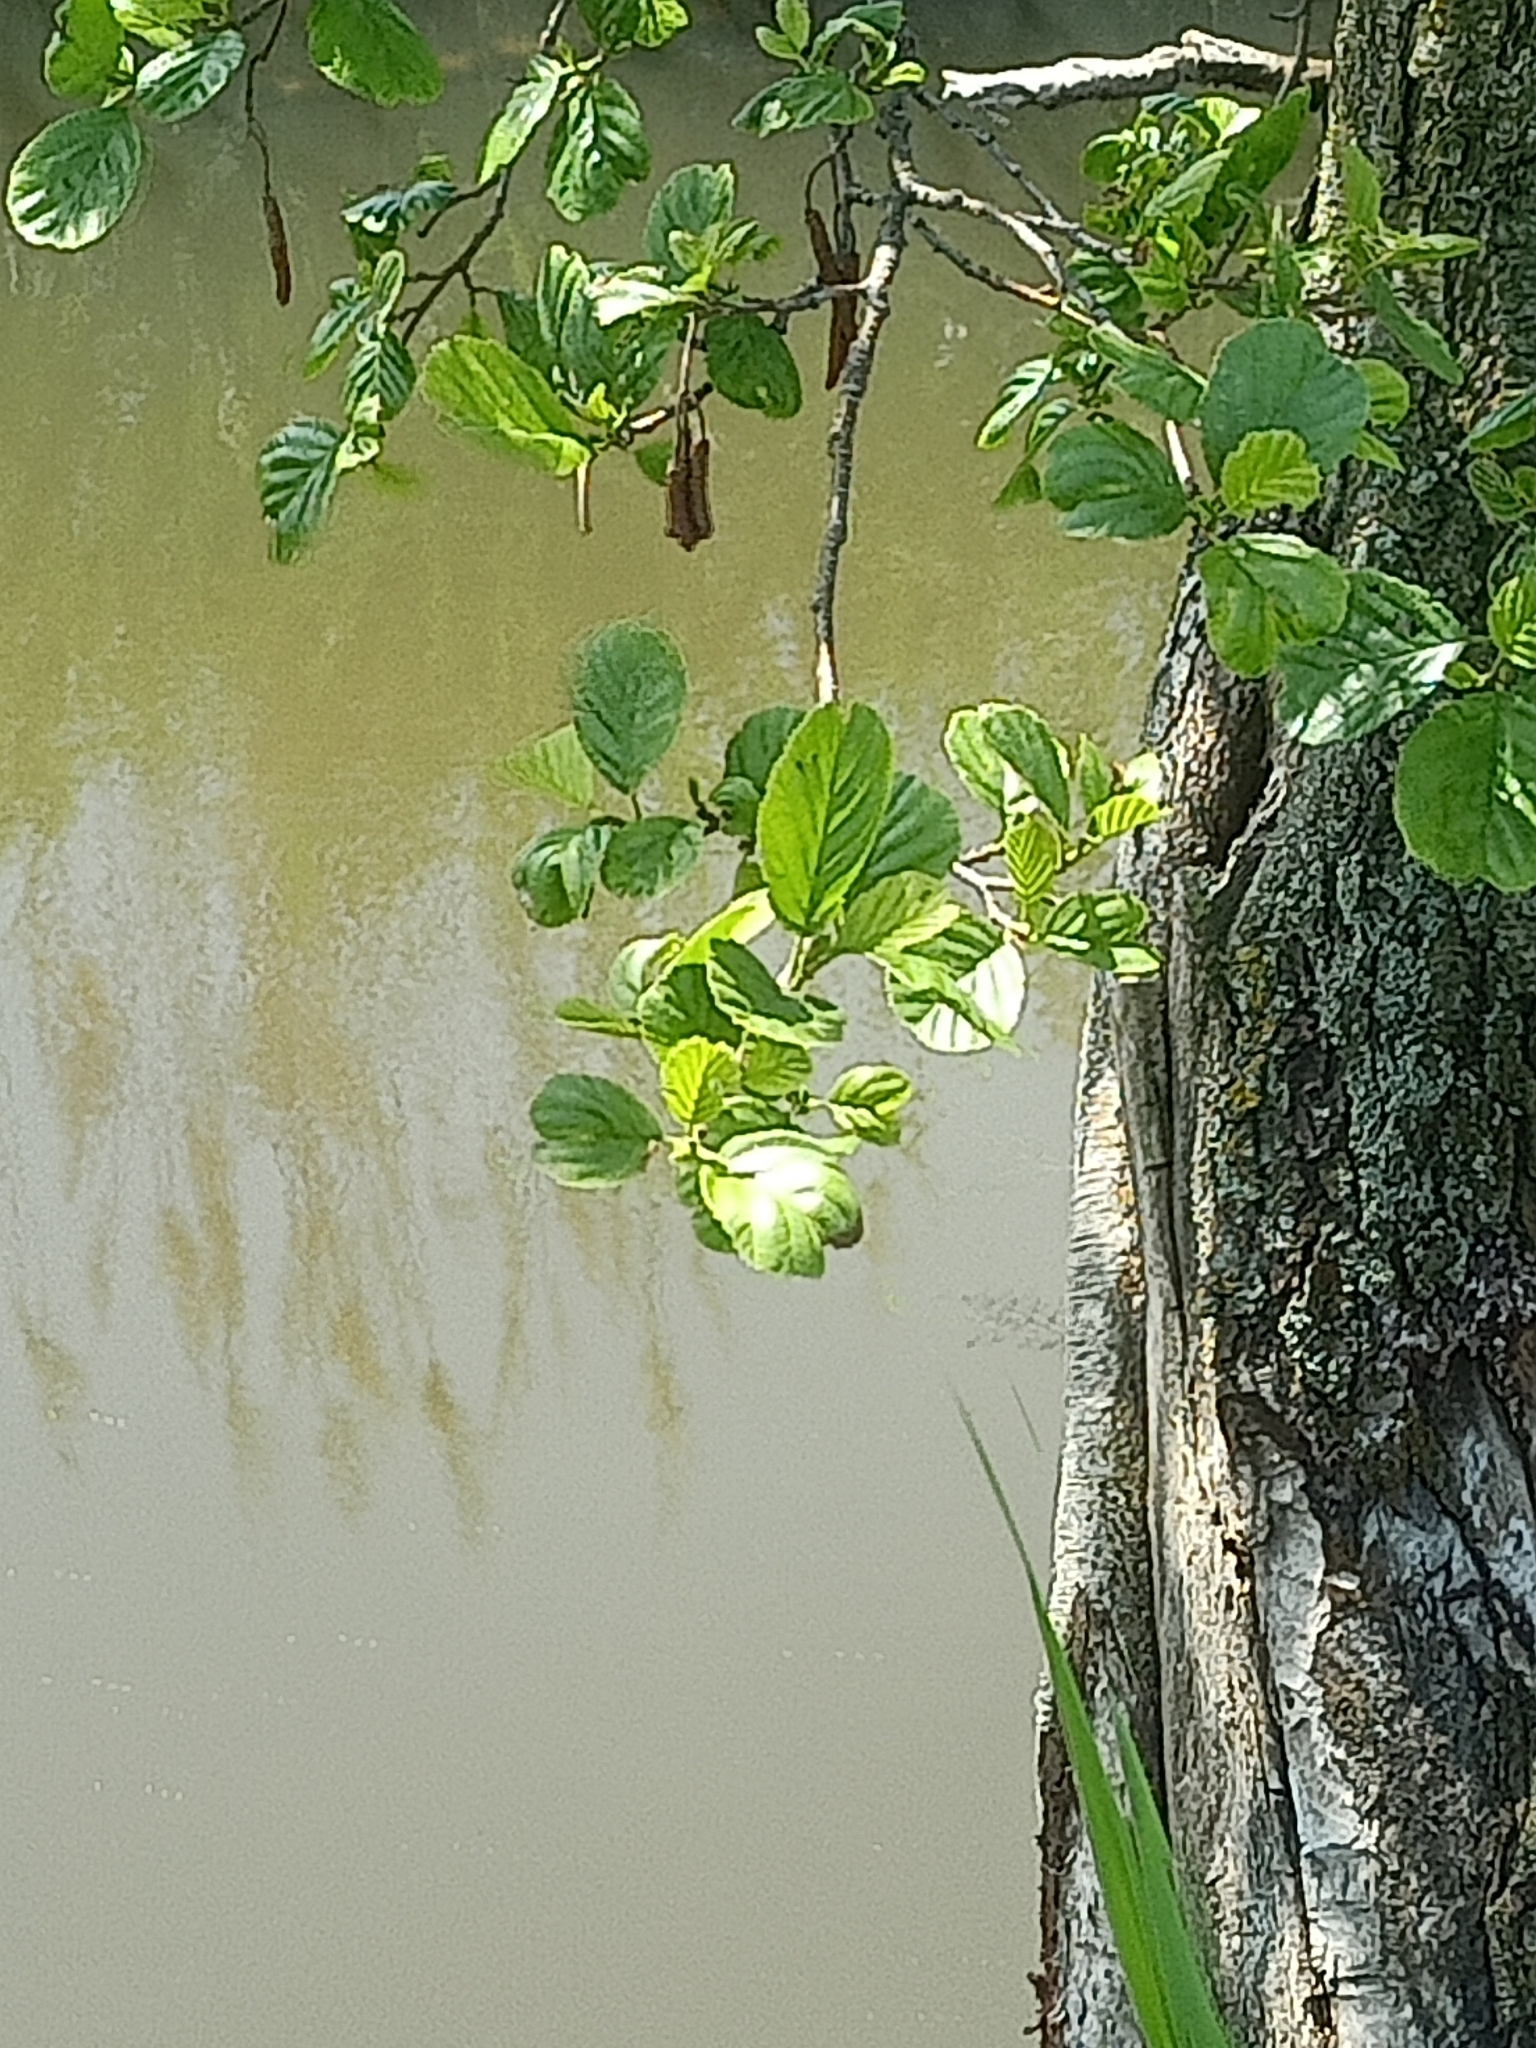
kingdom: Plantae
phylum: Tracheophyta
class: Magnoliopsida
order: Fagales
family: Betulaceae
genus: Alnus
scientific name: Alnus glutinosa
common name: Black alder
